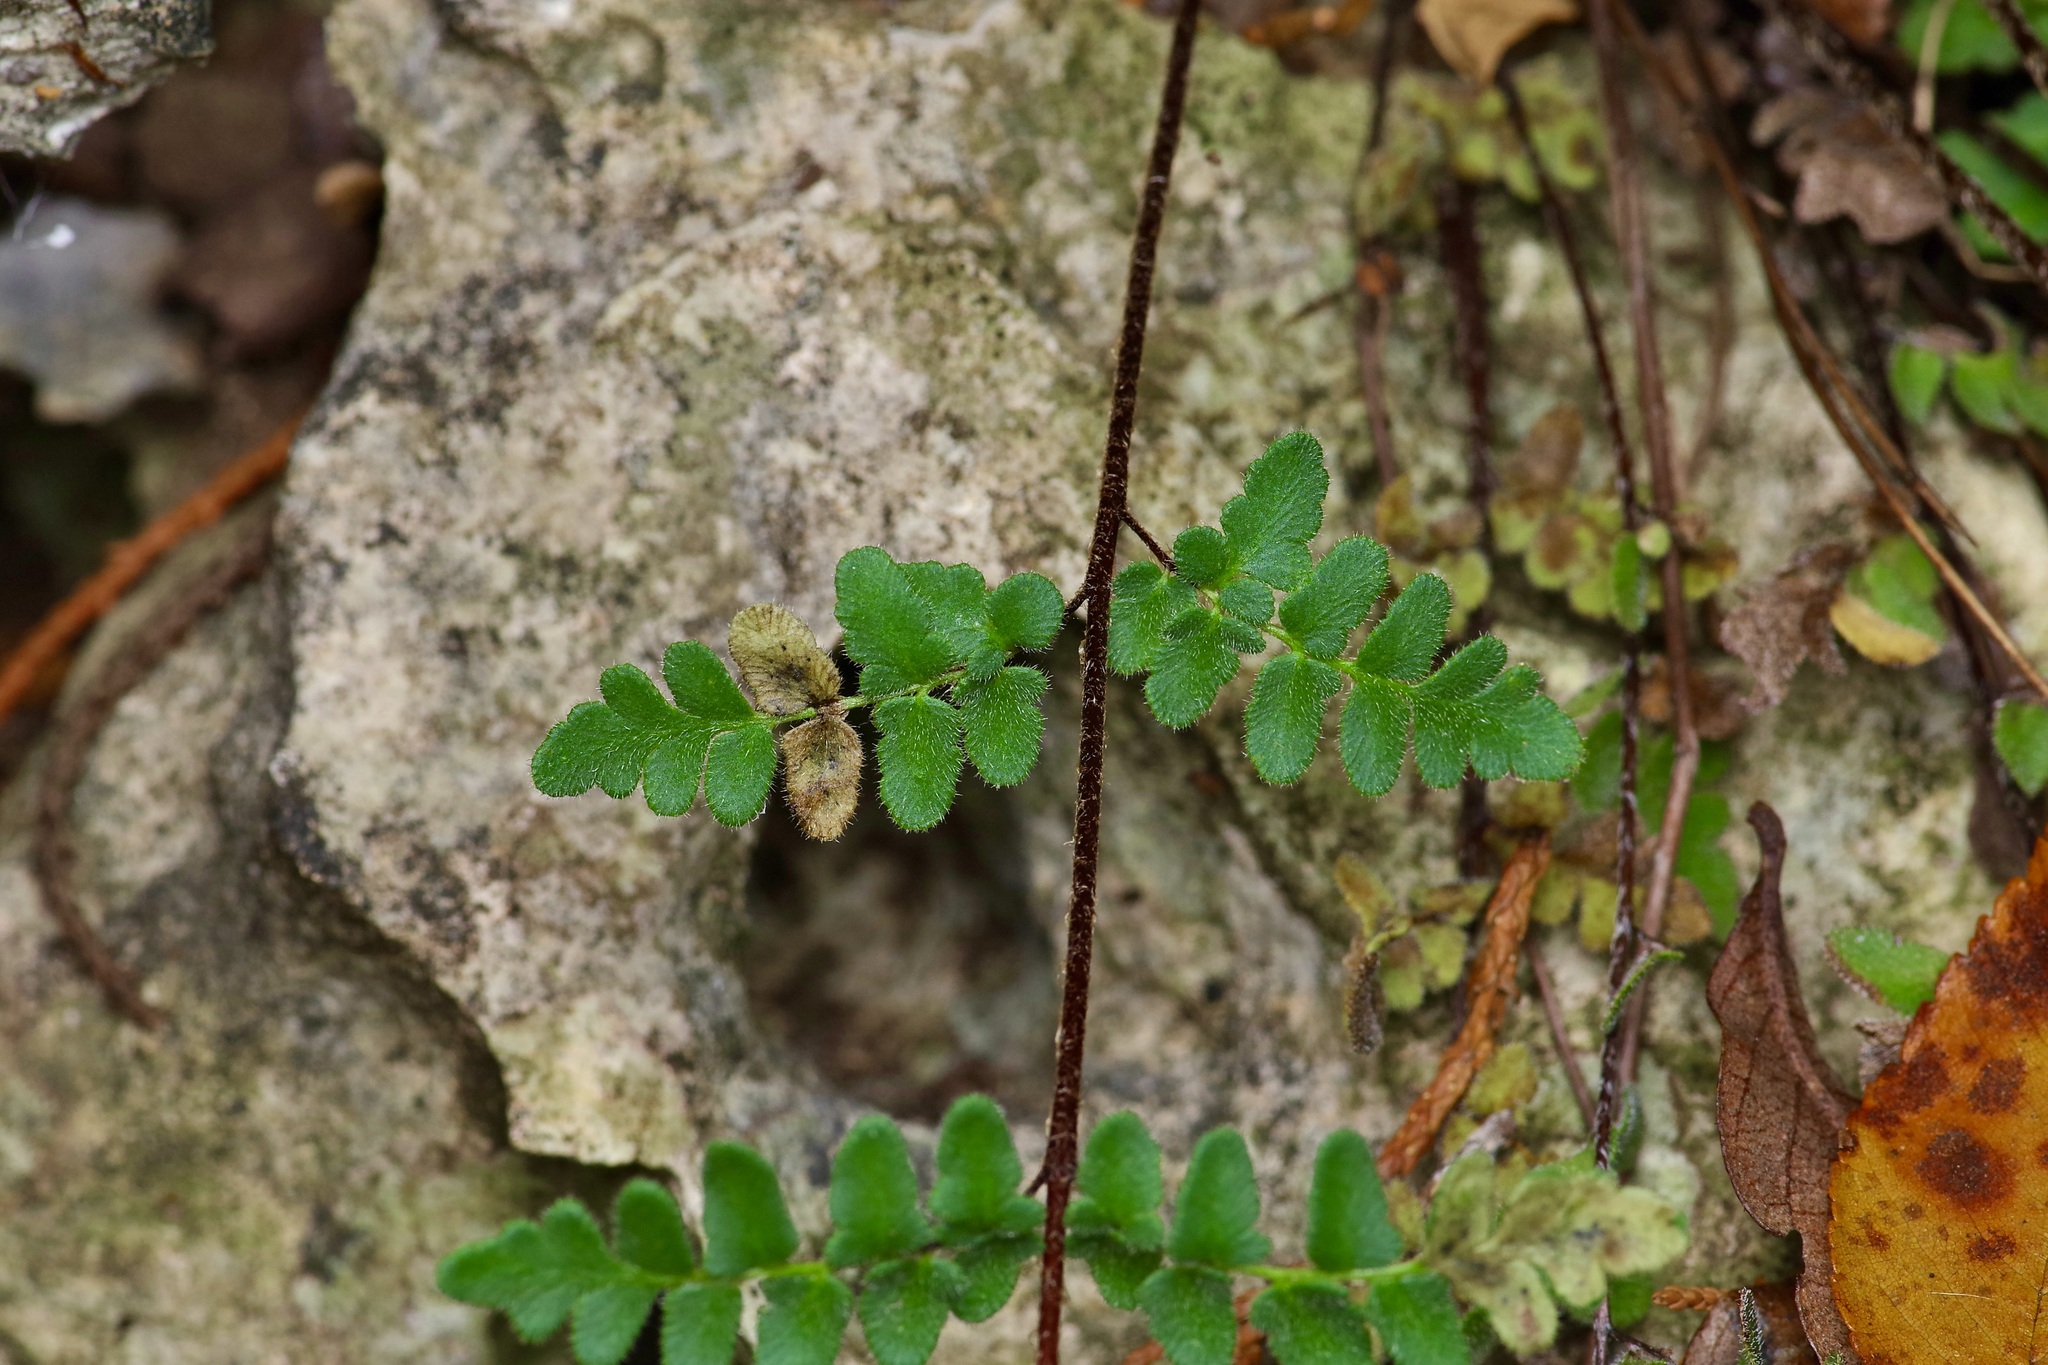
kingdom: Plantae
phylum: Tracheophyta
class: Polypodiopsida
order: Polypodiales
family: Pteridaceae
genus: Myriopteris
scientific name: Myriopteris scabra
